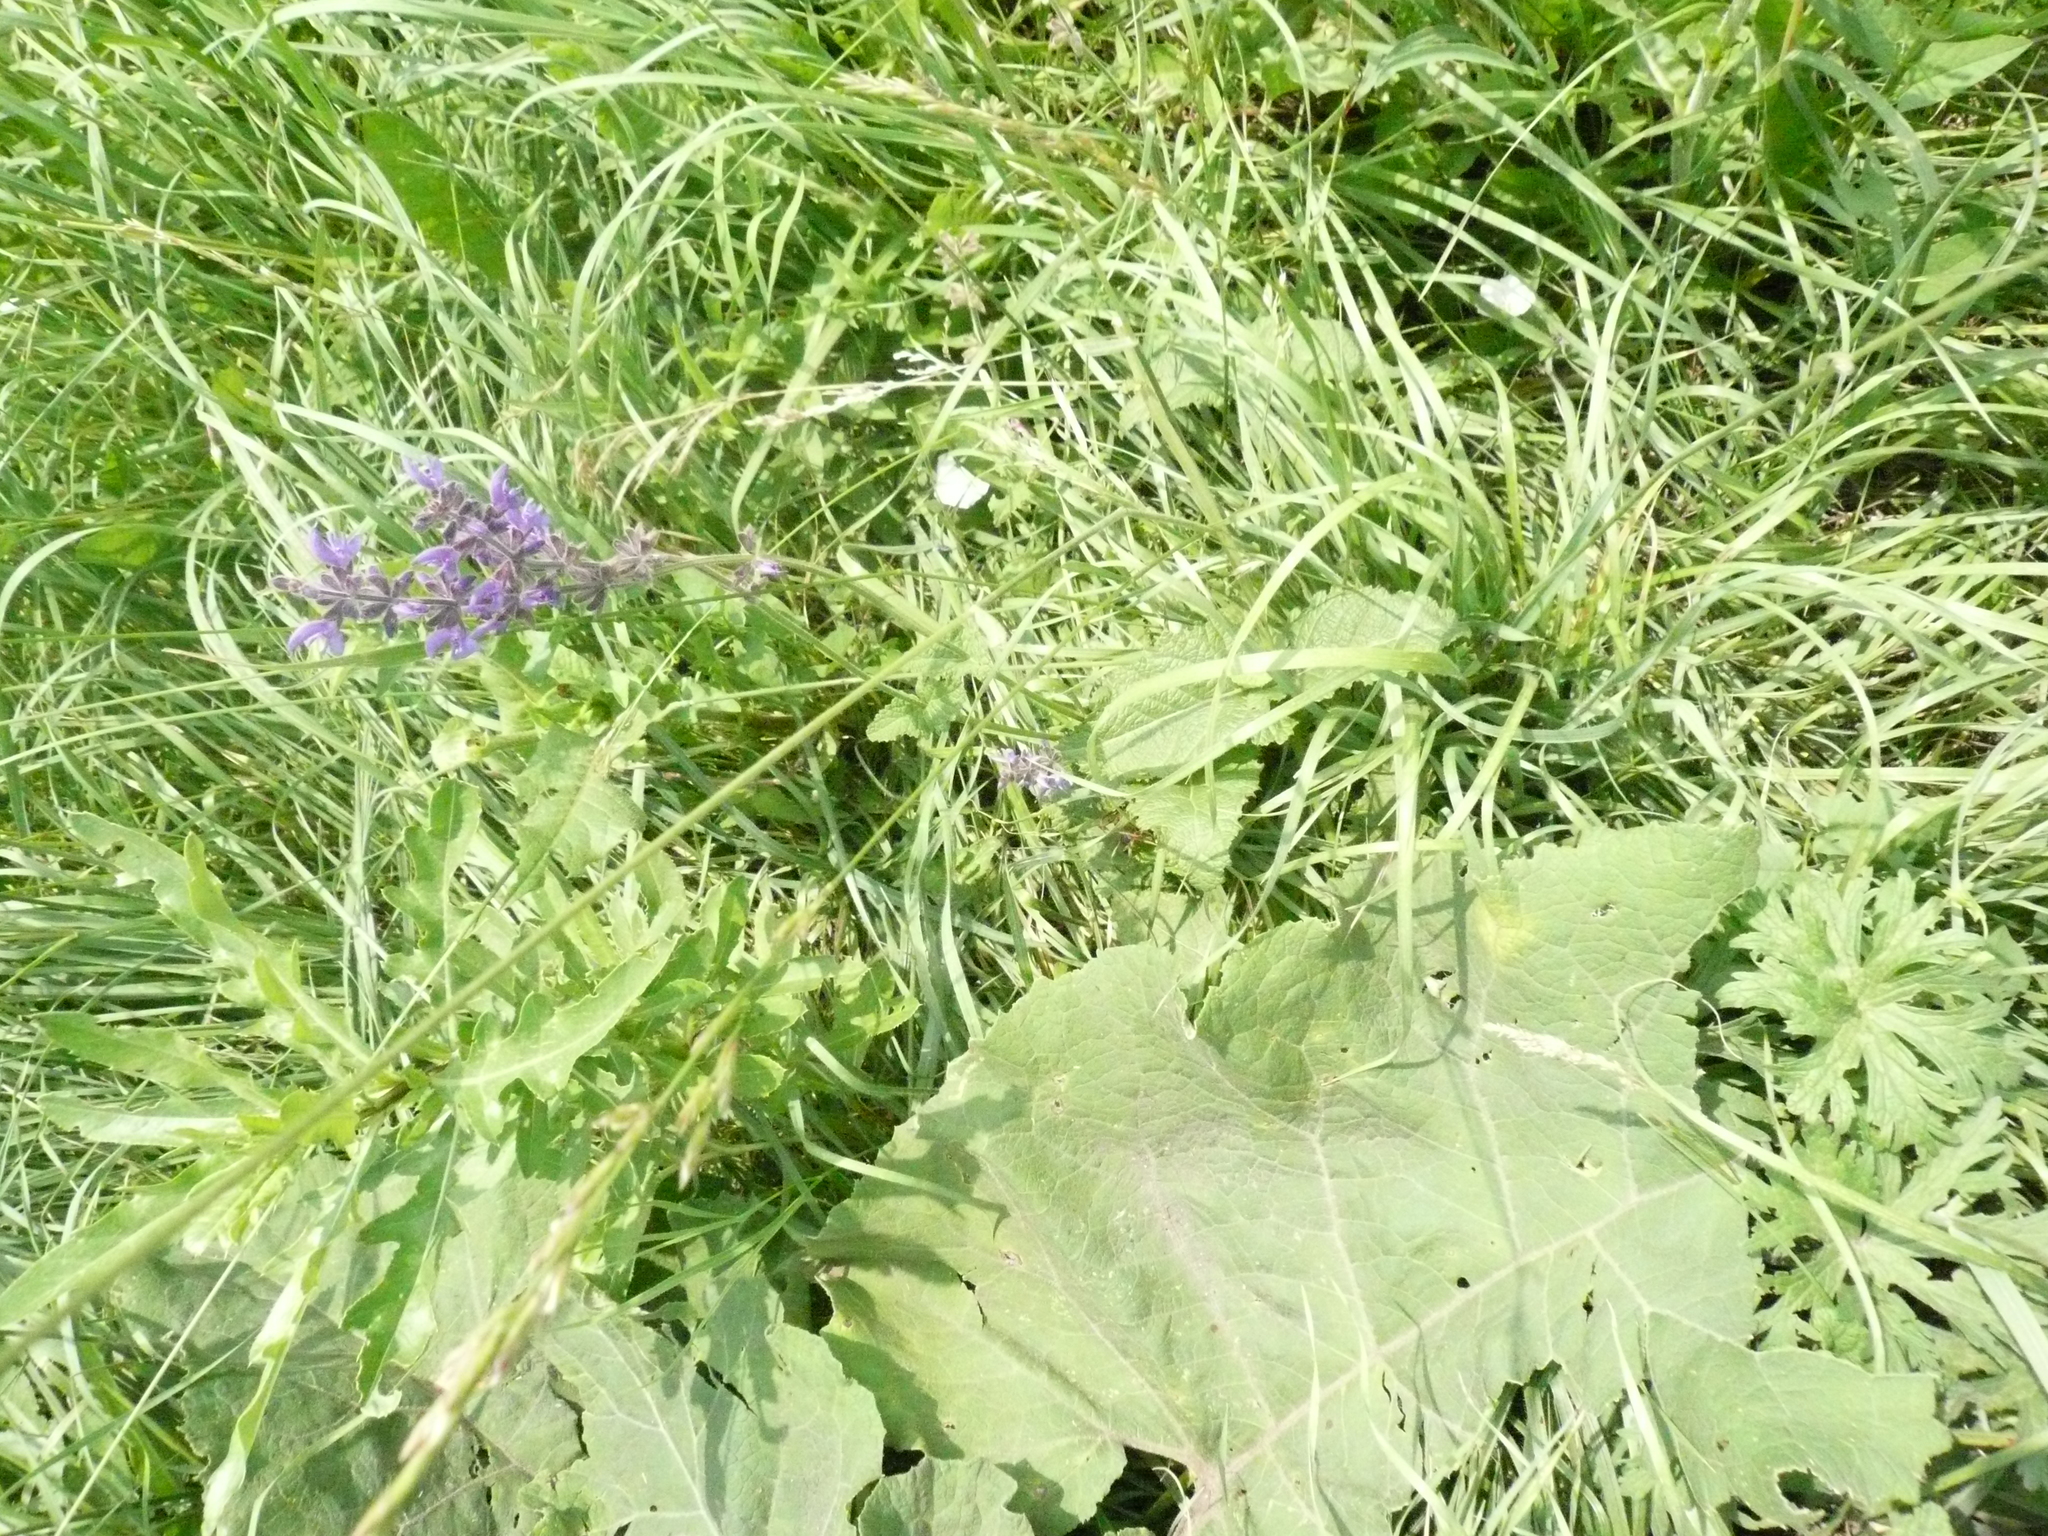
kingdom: Plantae
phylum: Tracheophyta
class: Magnoliopsida
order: Lamiales
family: Lamiaceae
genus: Salvia
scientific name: Salvia dumetorum
